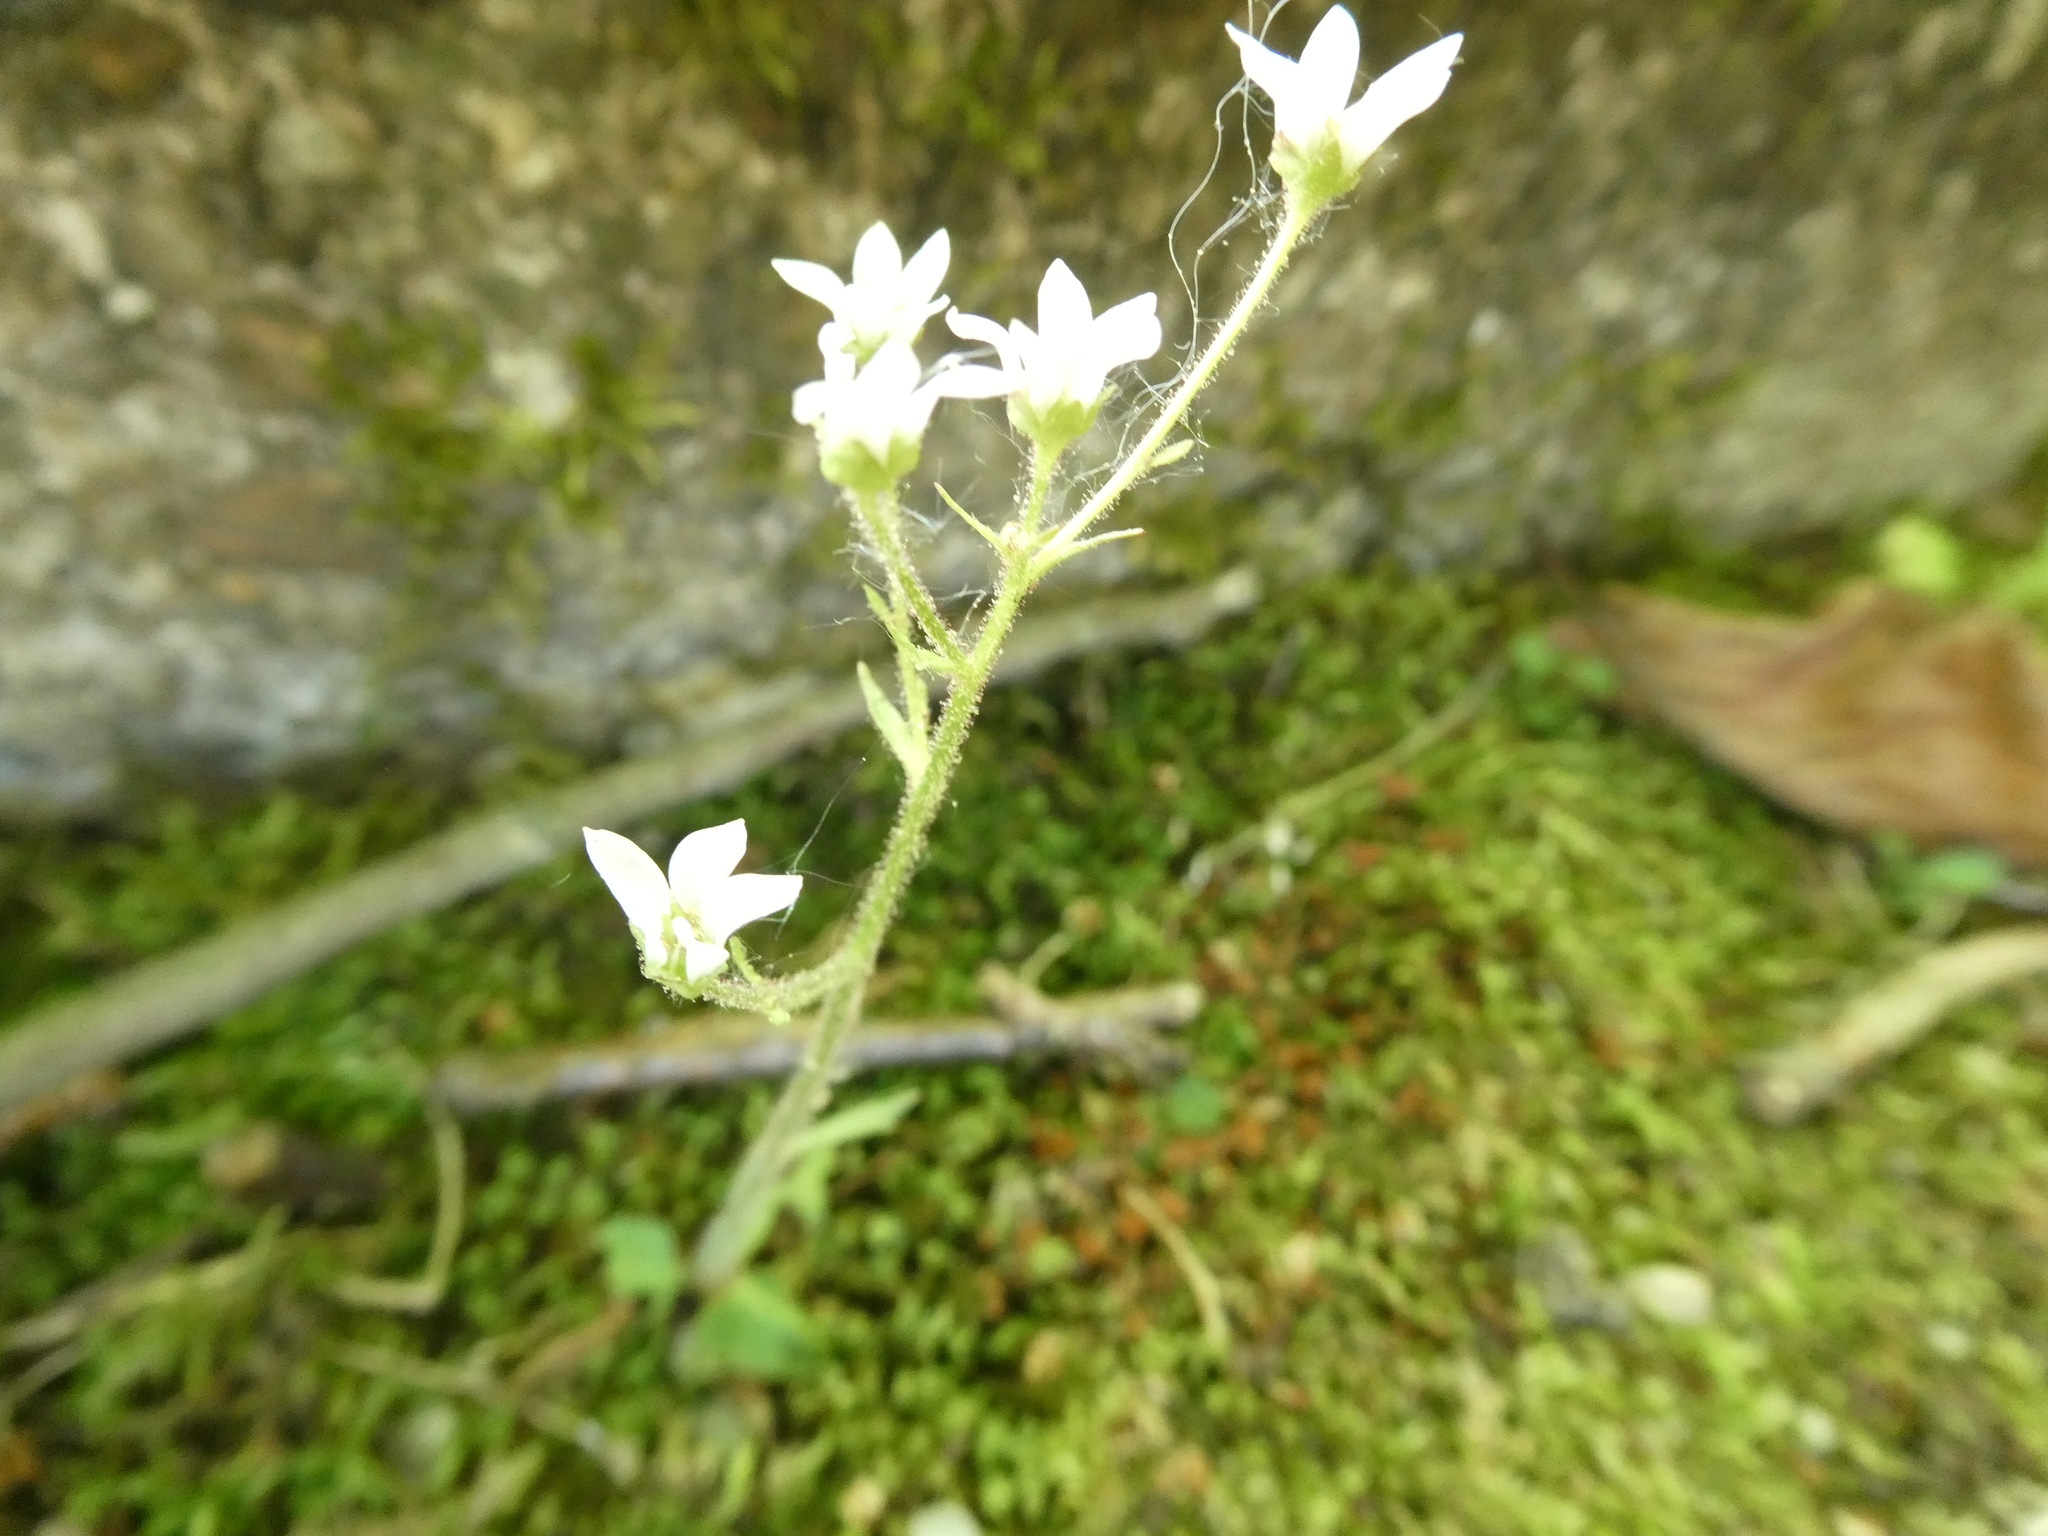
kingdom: Plantae
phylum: Tracheophyta
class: Magnoliopsida
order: Saxifragales
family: Saxifragaceae
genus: Micranthes
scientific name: Micranthes virginiensis
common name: Early saxifrage
